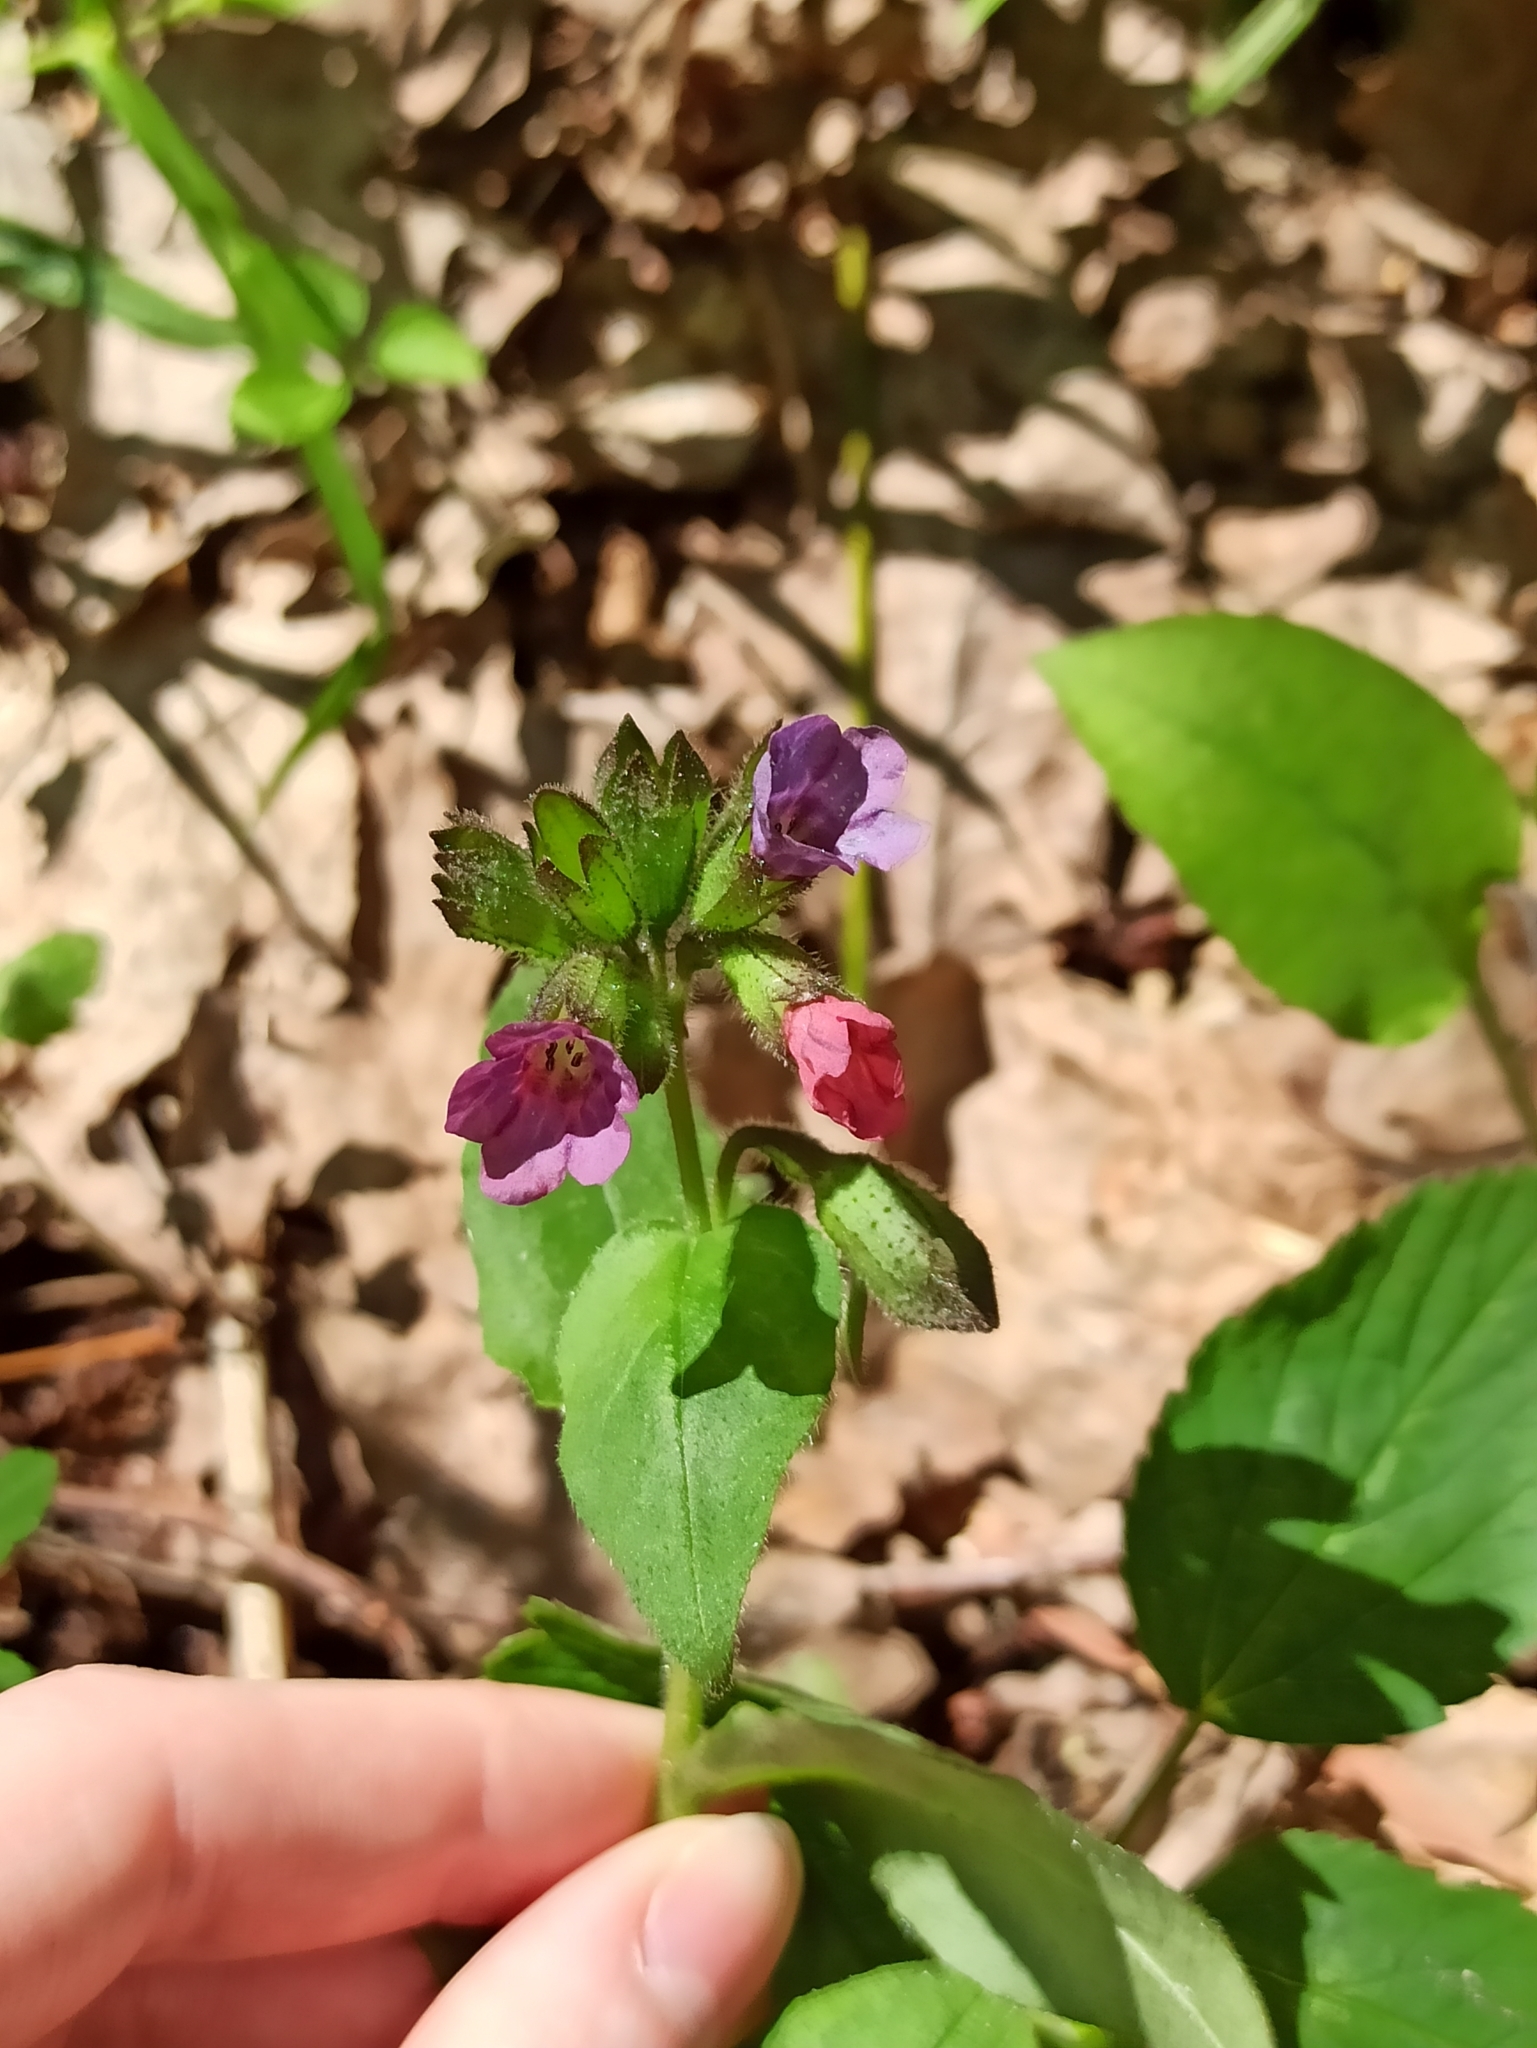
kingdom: Plantae
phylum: Tracheophyta
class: Magnoliopsida
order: Boraginales
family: Boraginaceae
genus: Pulmonaria
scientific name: Pulmonaria obscura
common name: Suffolk lungwort
